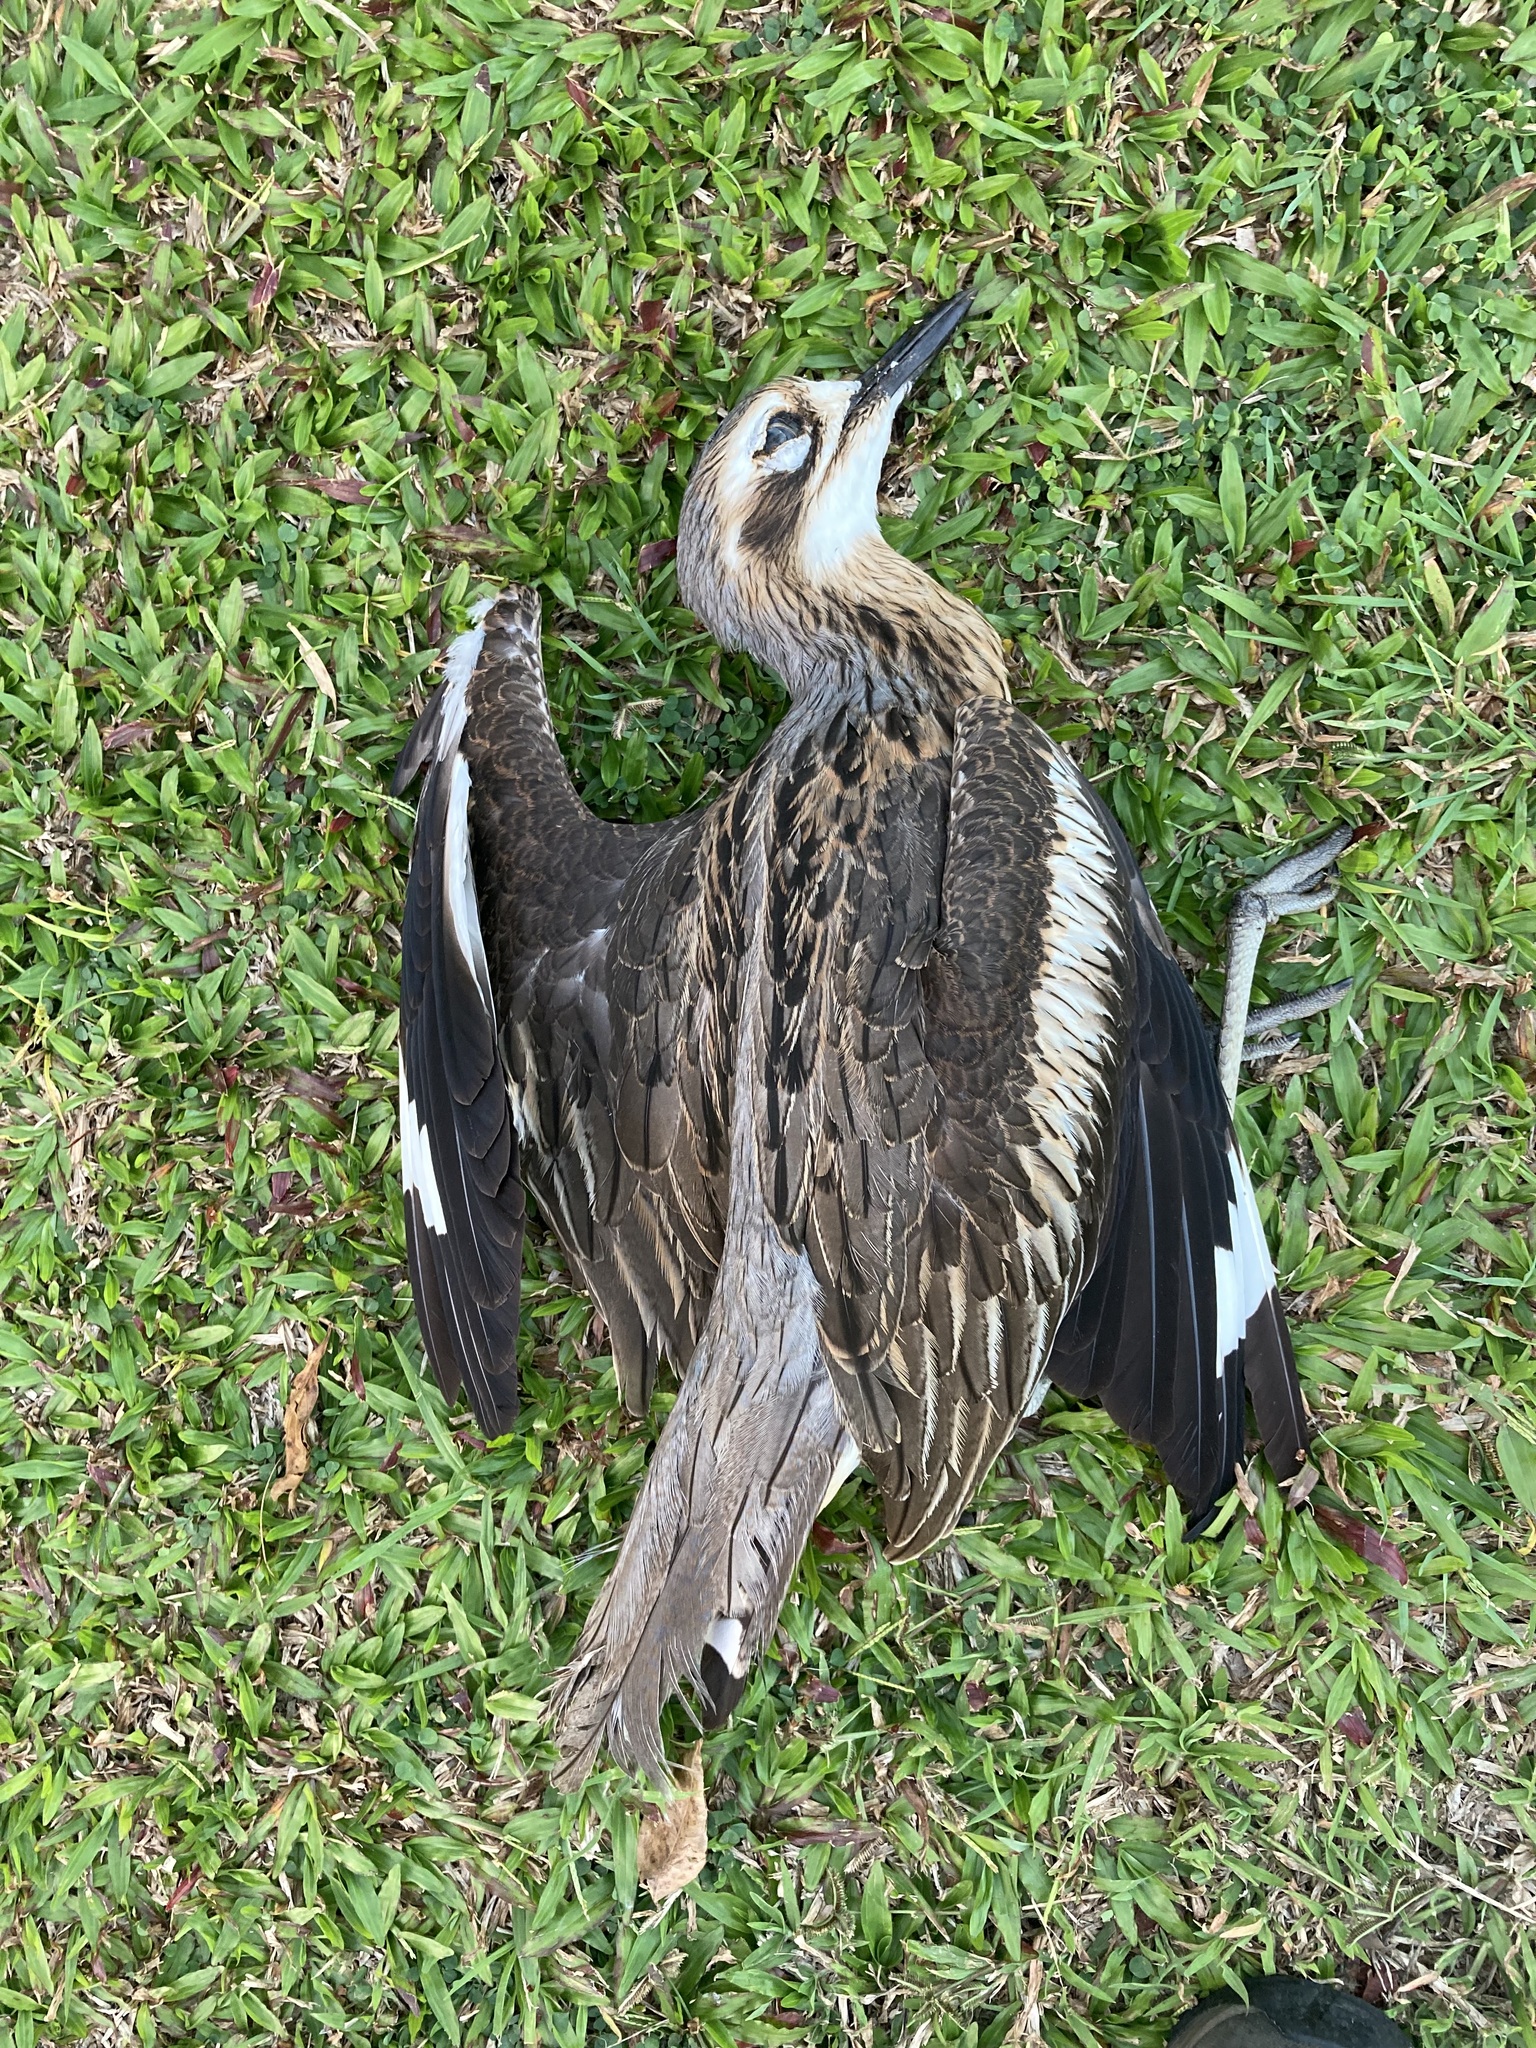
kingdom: Animalia
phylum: Chordata
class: Aves
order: Charadriiformes
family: Burhinidae
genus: Burhinus
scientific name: Burhinus grallarius
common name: Bush stone-curlew
